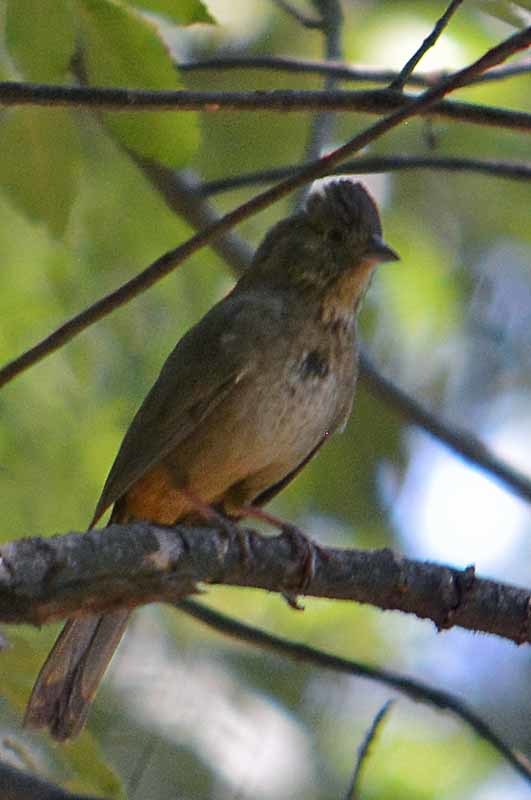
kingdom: Animalia
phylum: Chordata
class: Aves
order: Passeriformes
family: Passerellidae
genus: Melozone
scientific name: Melozone fusca
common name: Canyon towhee
